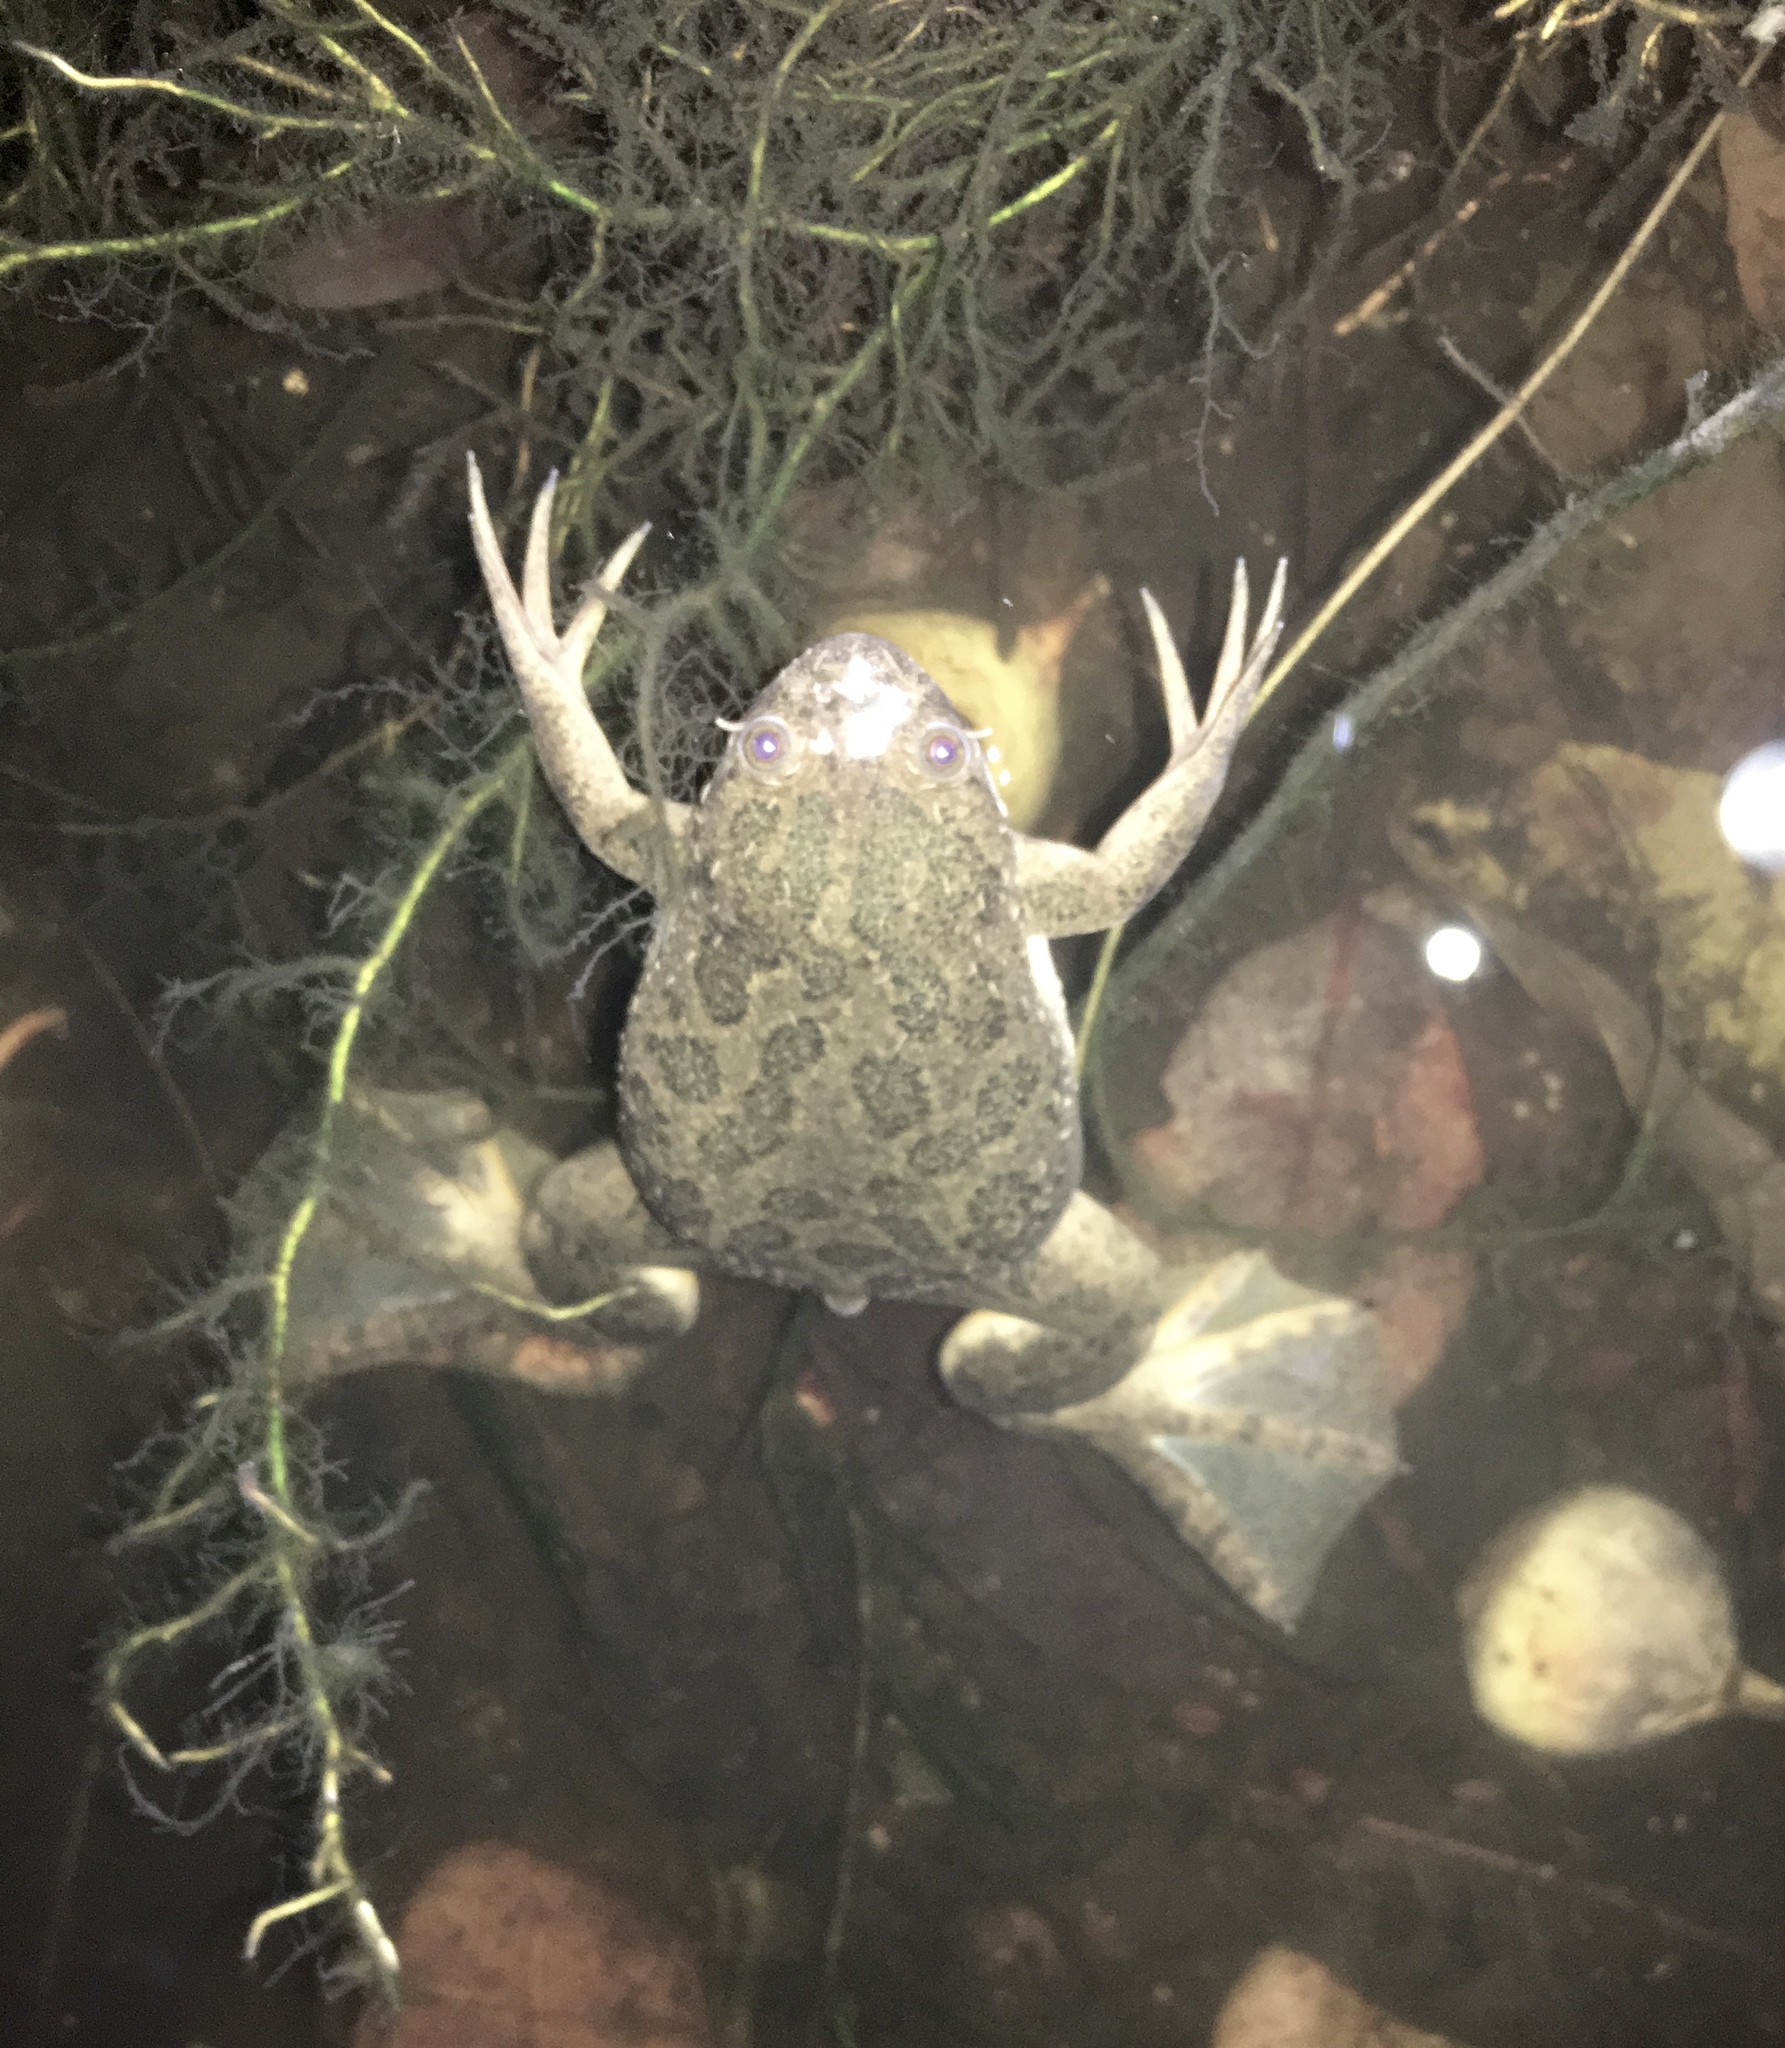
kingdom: Animalia
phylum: Chordata
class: Amphibia
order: Anura
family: Pipidae
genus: Xenopus
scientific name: Xenopus muelleri
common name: Muller's clawed frog
